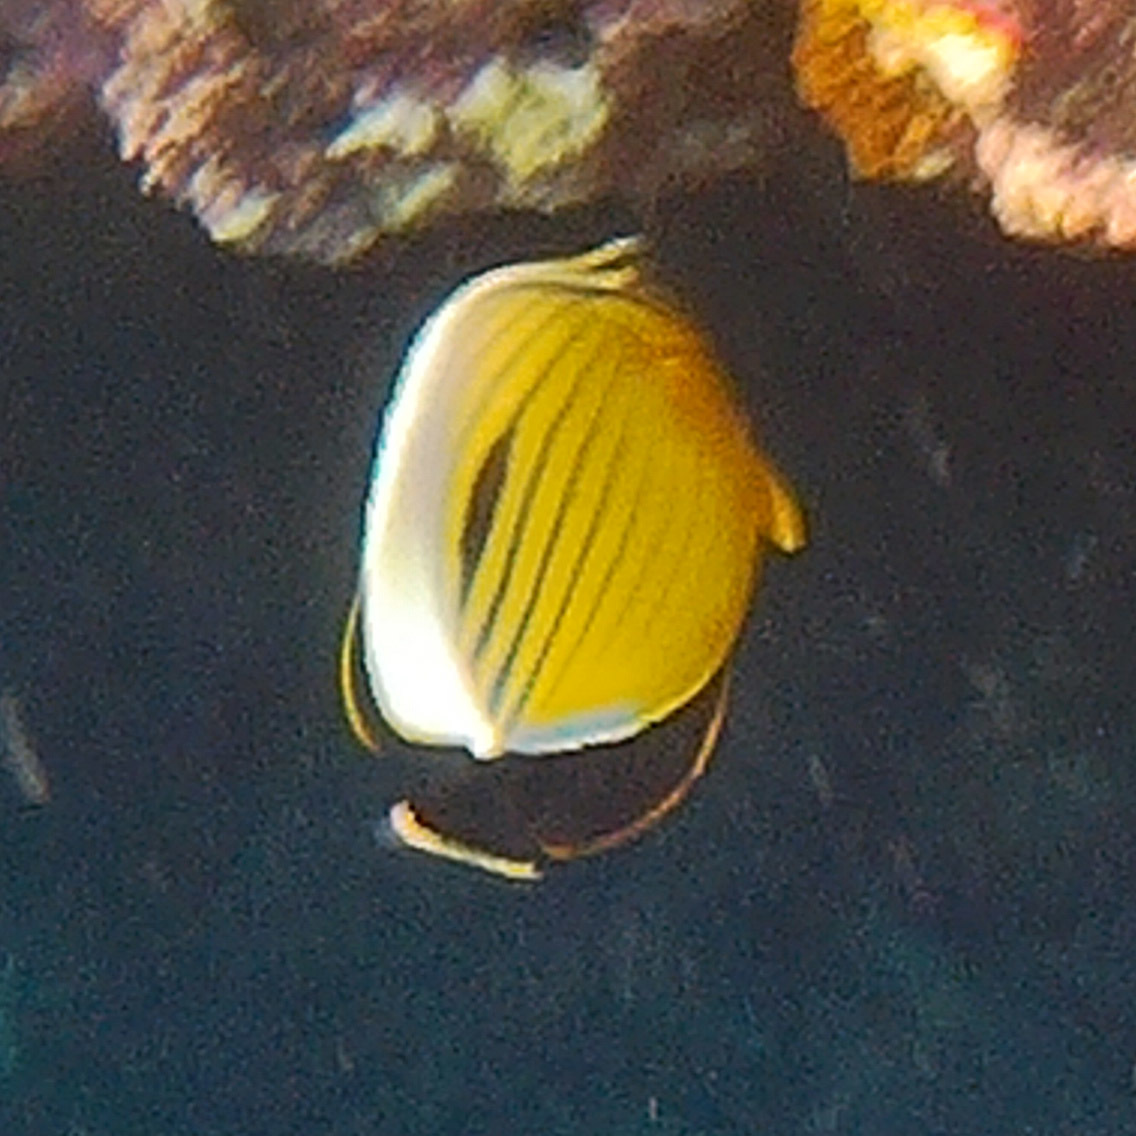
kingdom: Animalia
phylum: Chordata
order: Perciformes
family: Chaetodontidae
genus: Chaetodon
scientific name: Chaetodon austriacus
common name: Exquisite butterflyfish
